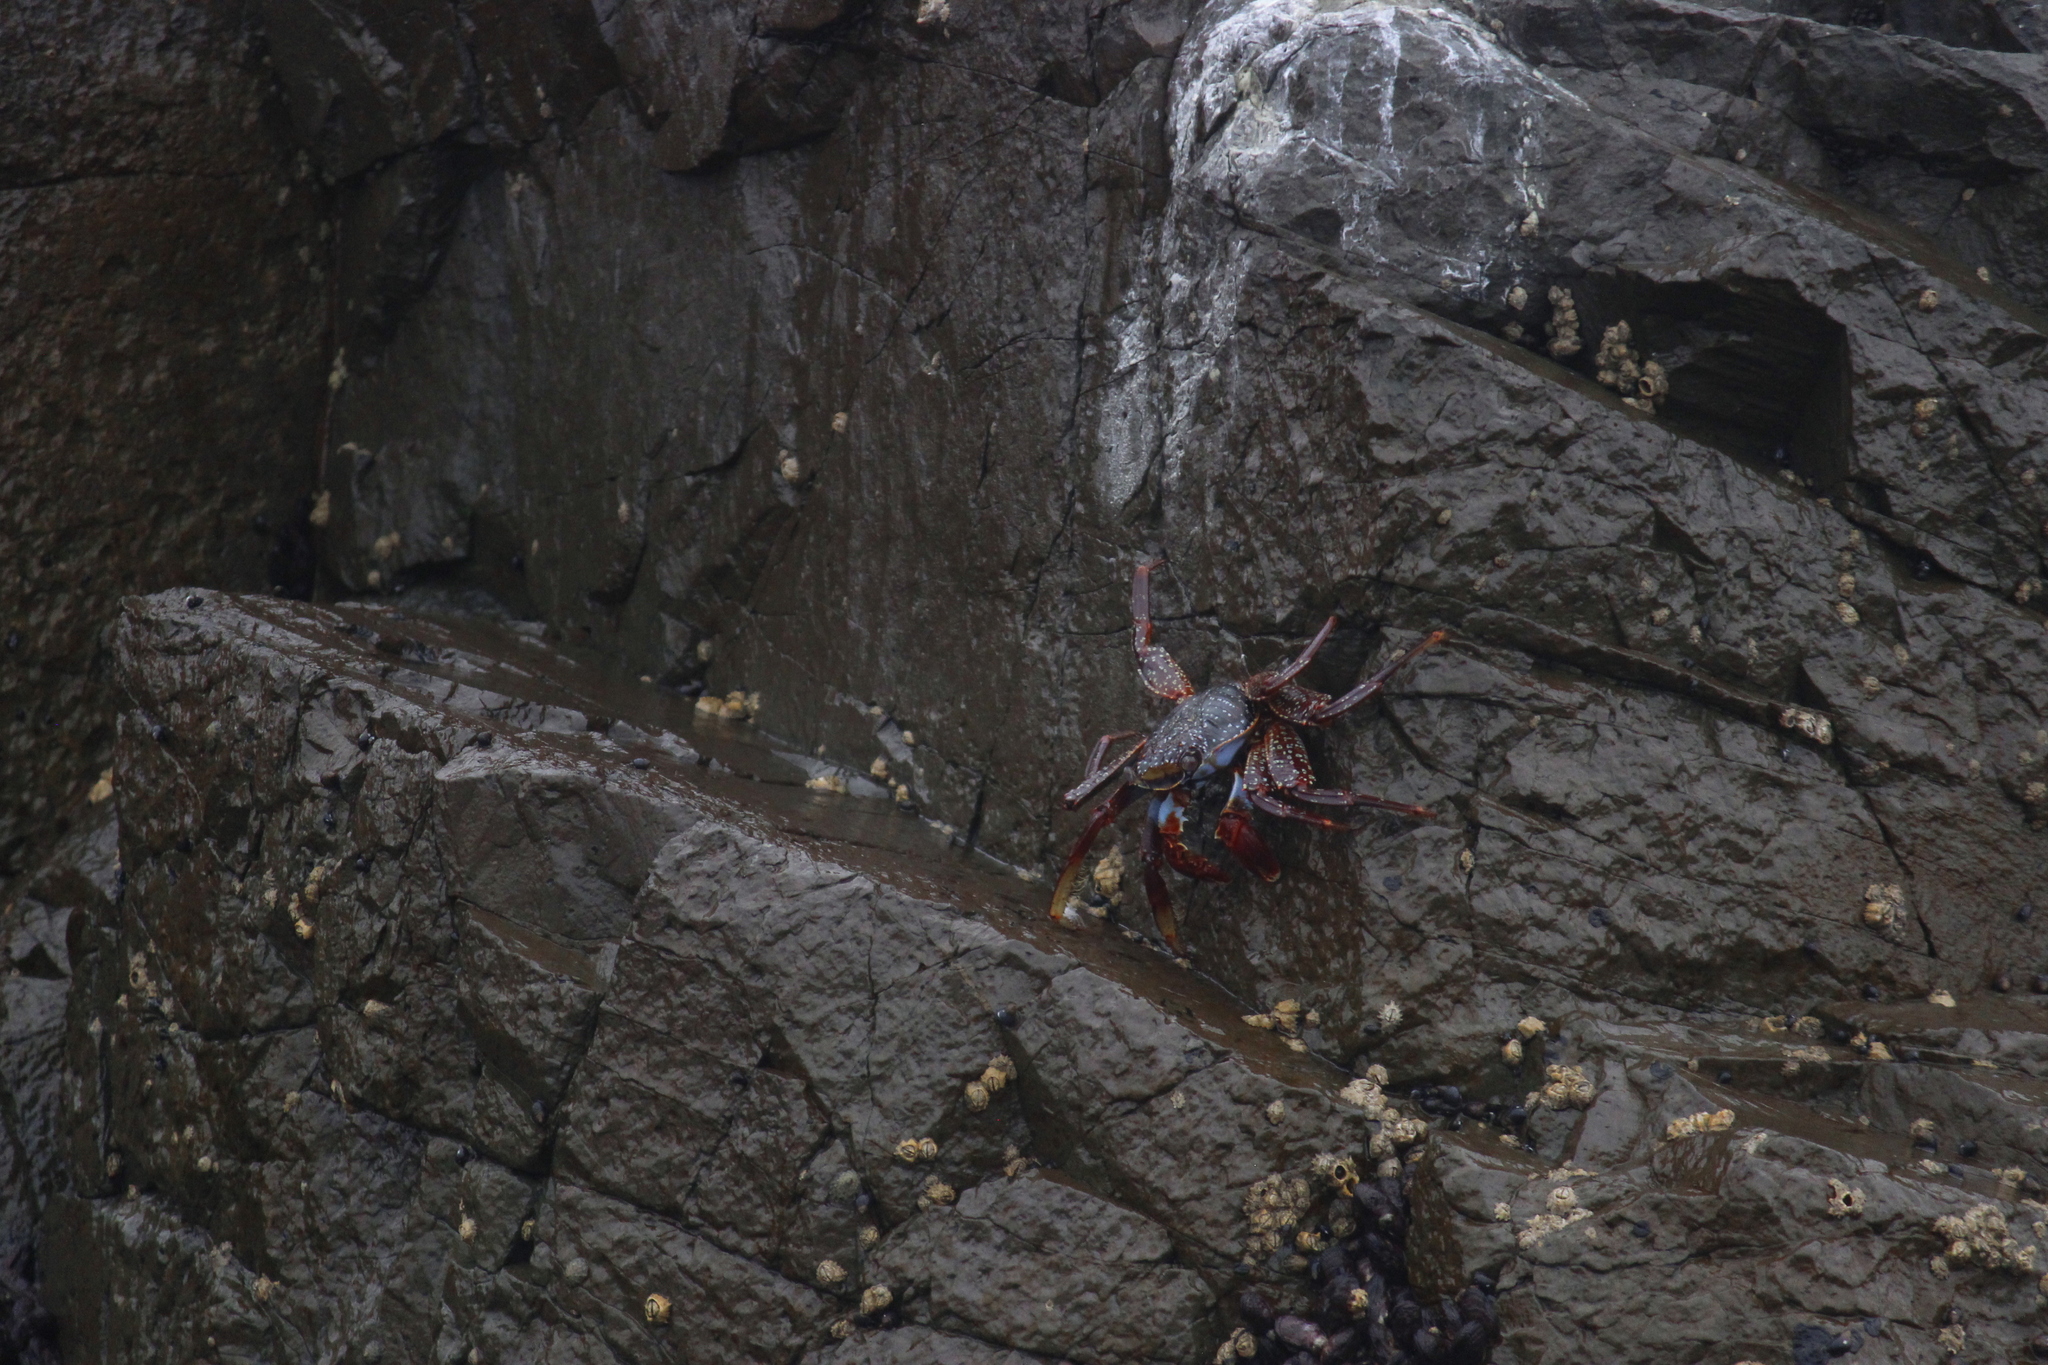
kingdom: Animalia
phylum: Arthropoda
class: Malacostraca
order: Decapoda
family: Grapsidae
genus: Grapsus
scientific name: Grapsus grapsus
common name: Sally lightfoot
